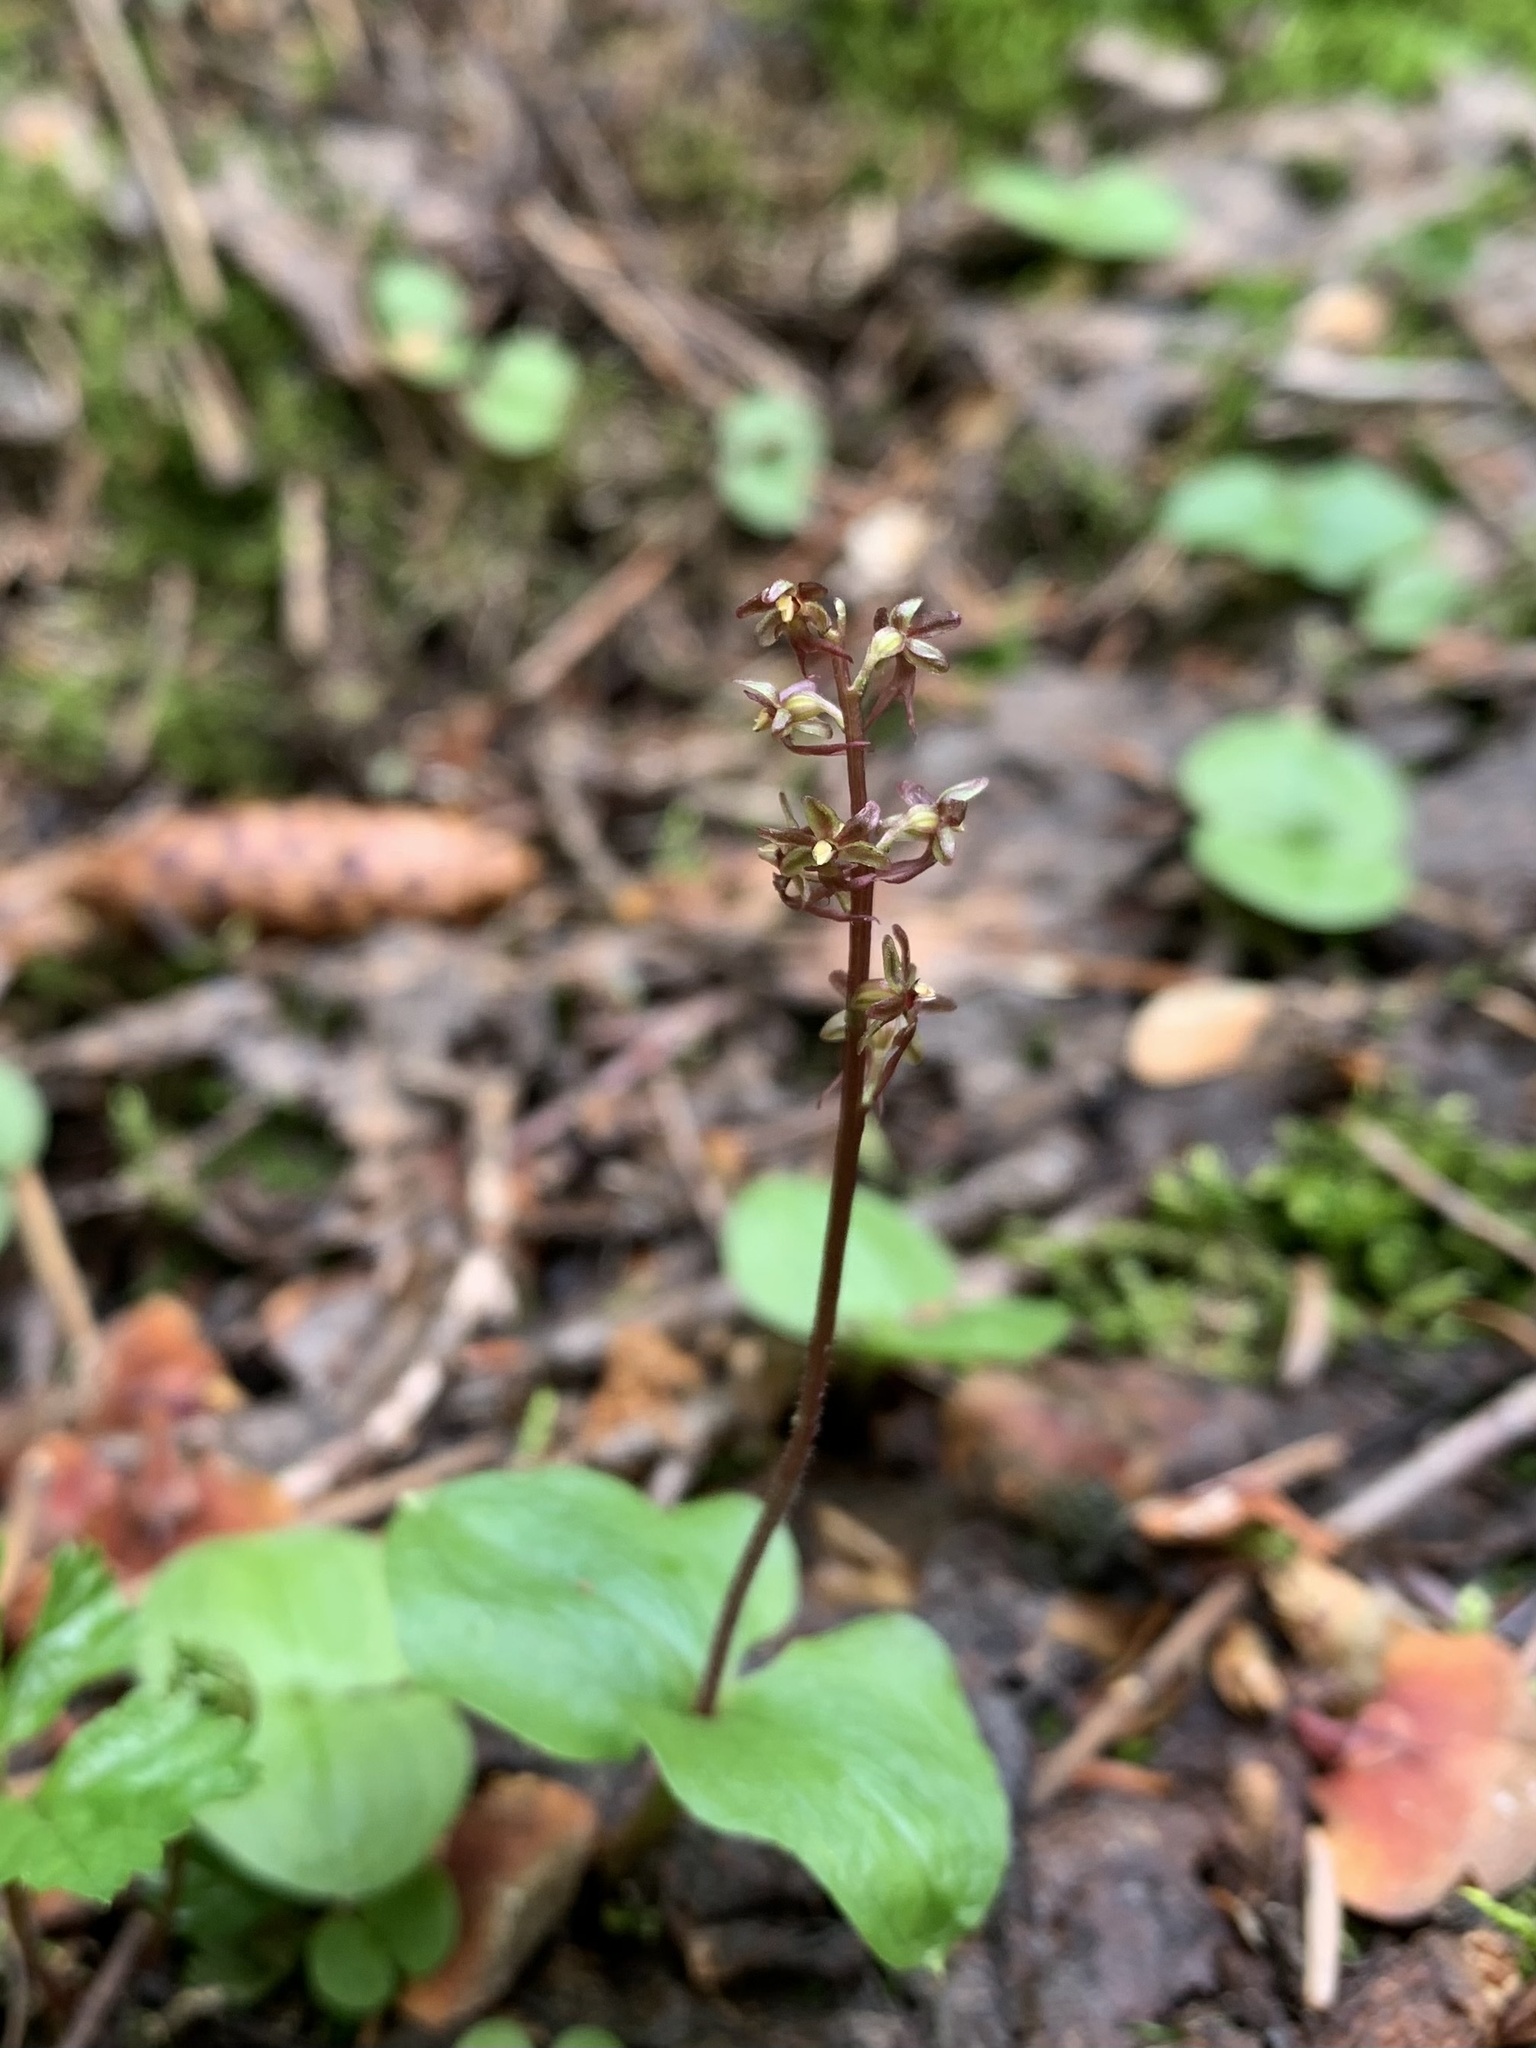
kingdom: Plantae
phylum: Tracheophyta
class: Liliopsida
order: Asparagales
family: Orchidaceae
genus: Neottia
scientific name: Neottia cordata
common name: Lesser twayblade
